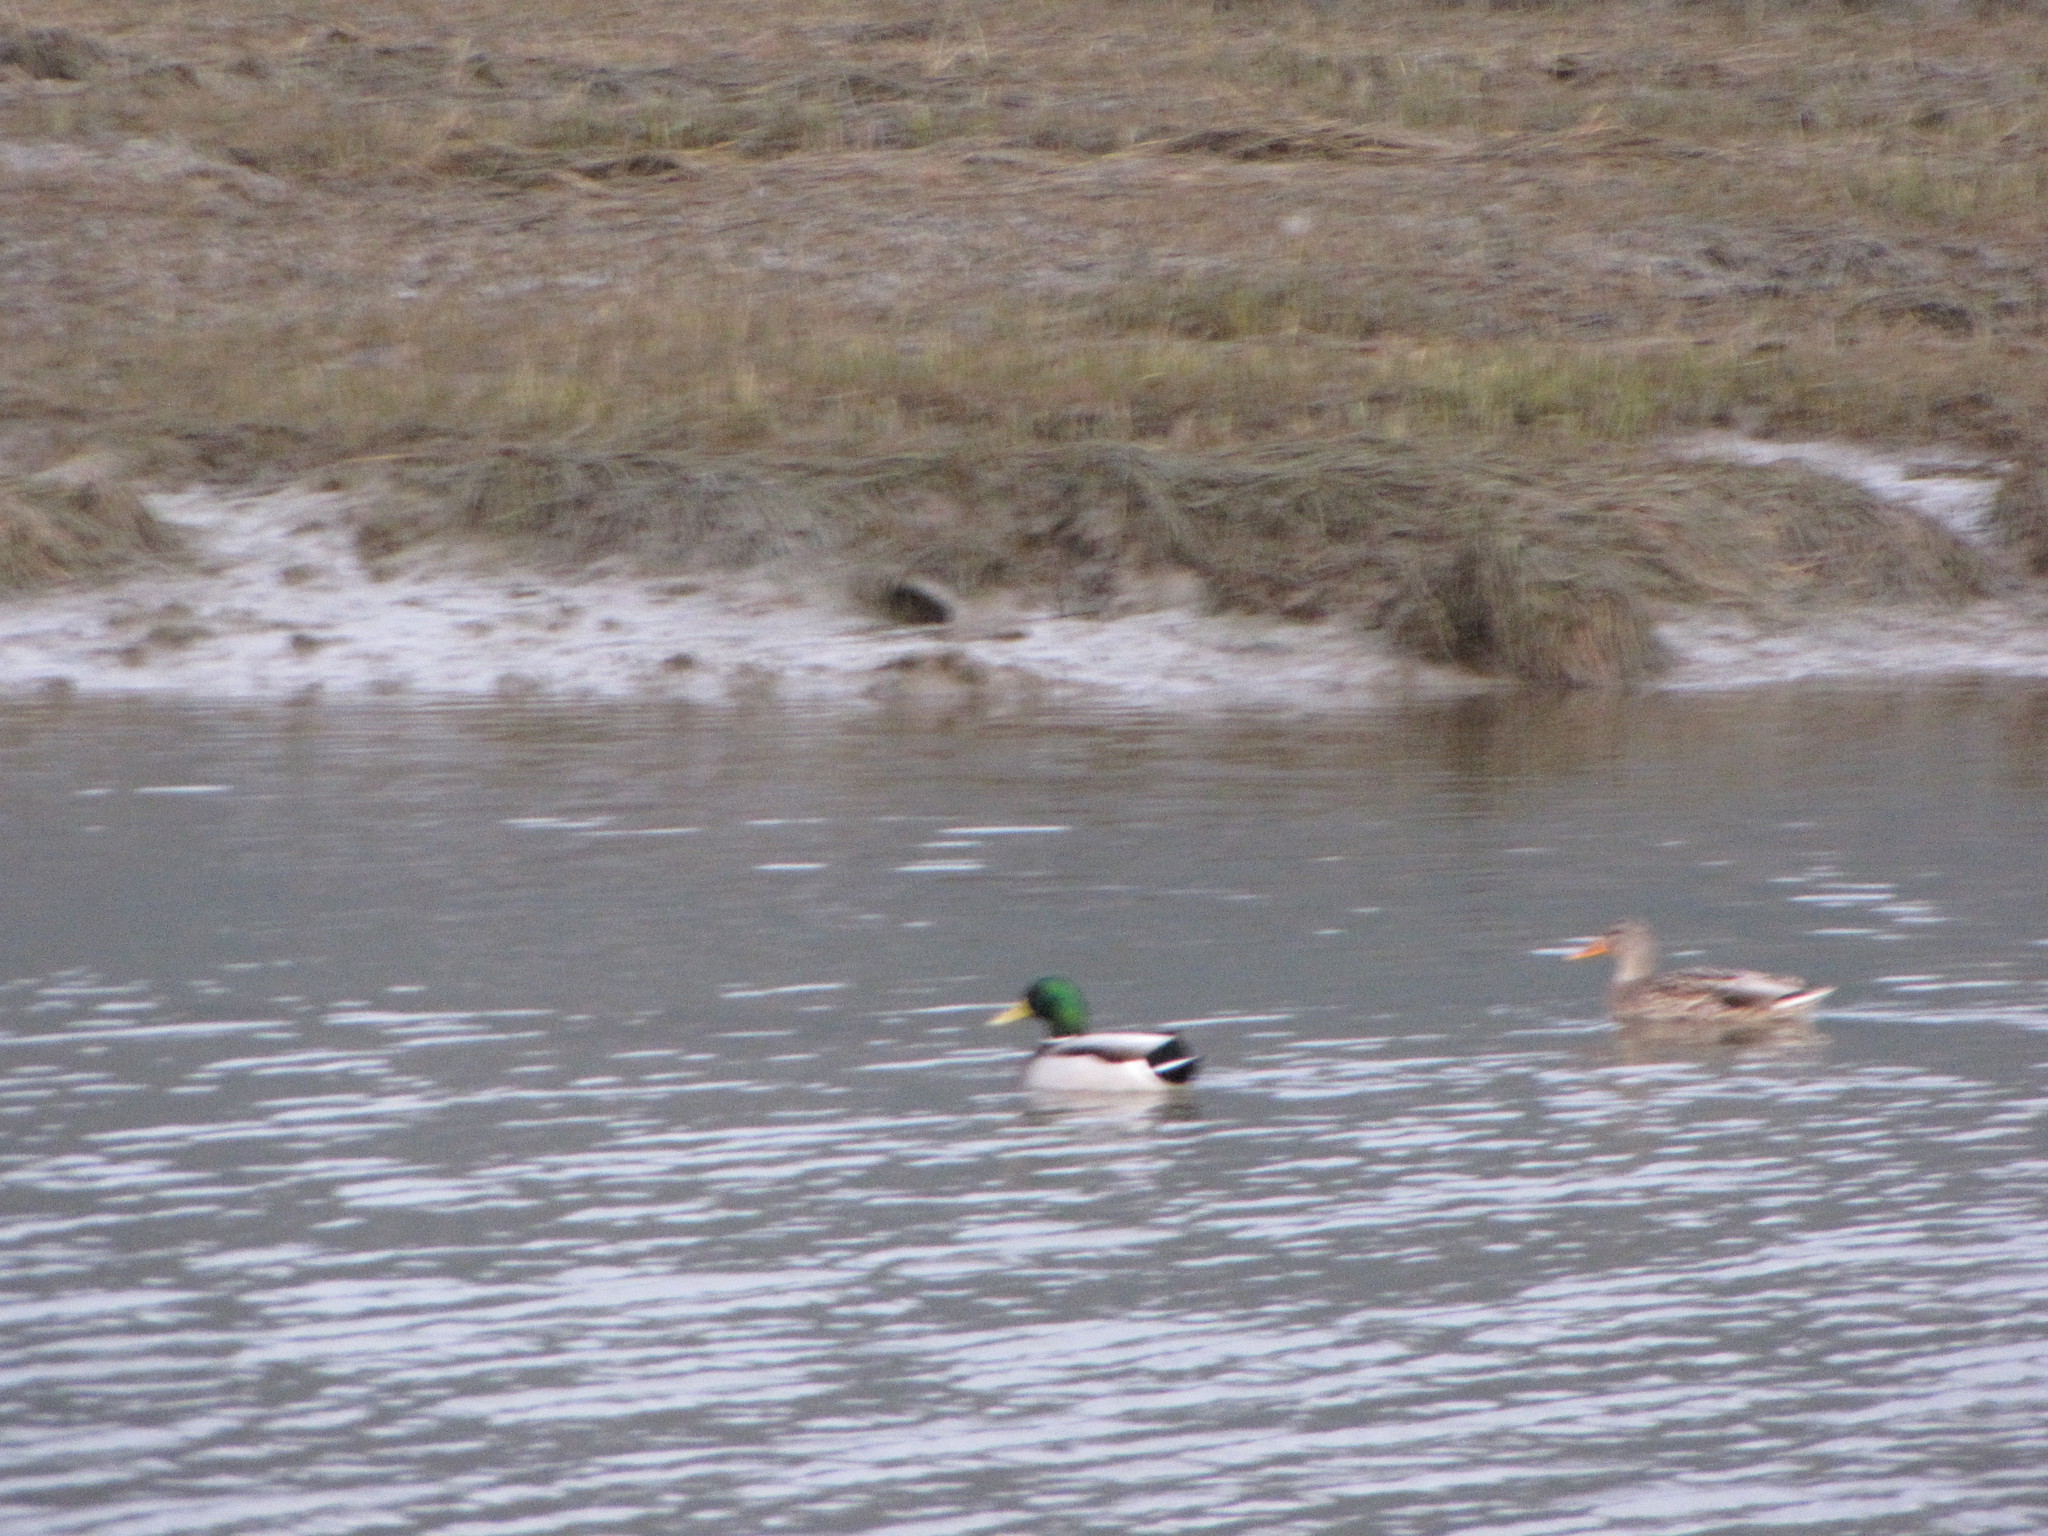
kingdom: Animalia
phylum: Chordata
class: Aves
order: Anseriformes
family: Anatidae
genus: Anas
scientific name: Anas platyrhynchos
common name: Mallard
